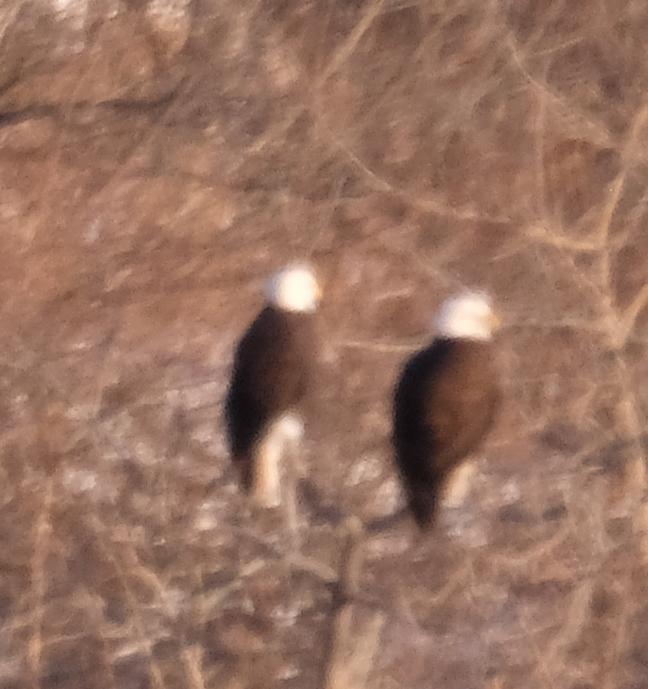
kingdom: Animalia
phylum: Chordata
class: Aves
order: Accipitriformes
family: Accipitridae
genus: Haliaeetus
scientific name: Haliaeetus leucocephalus
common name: Bald eagle
